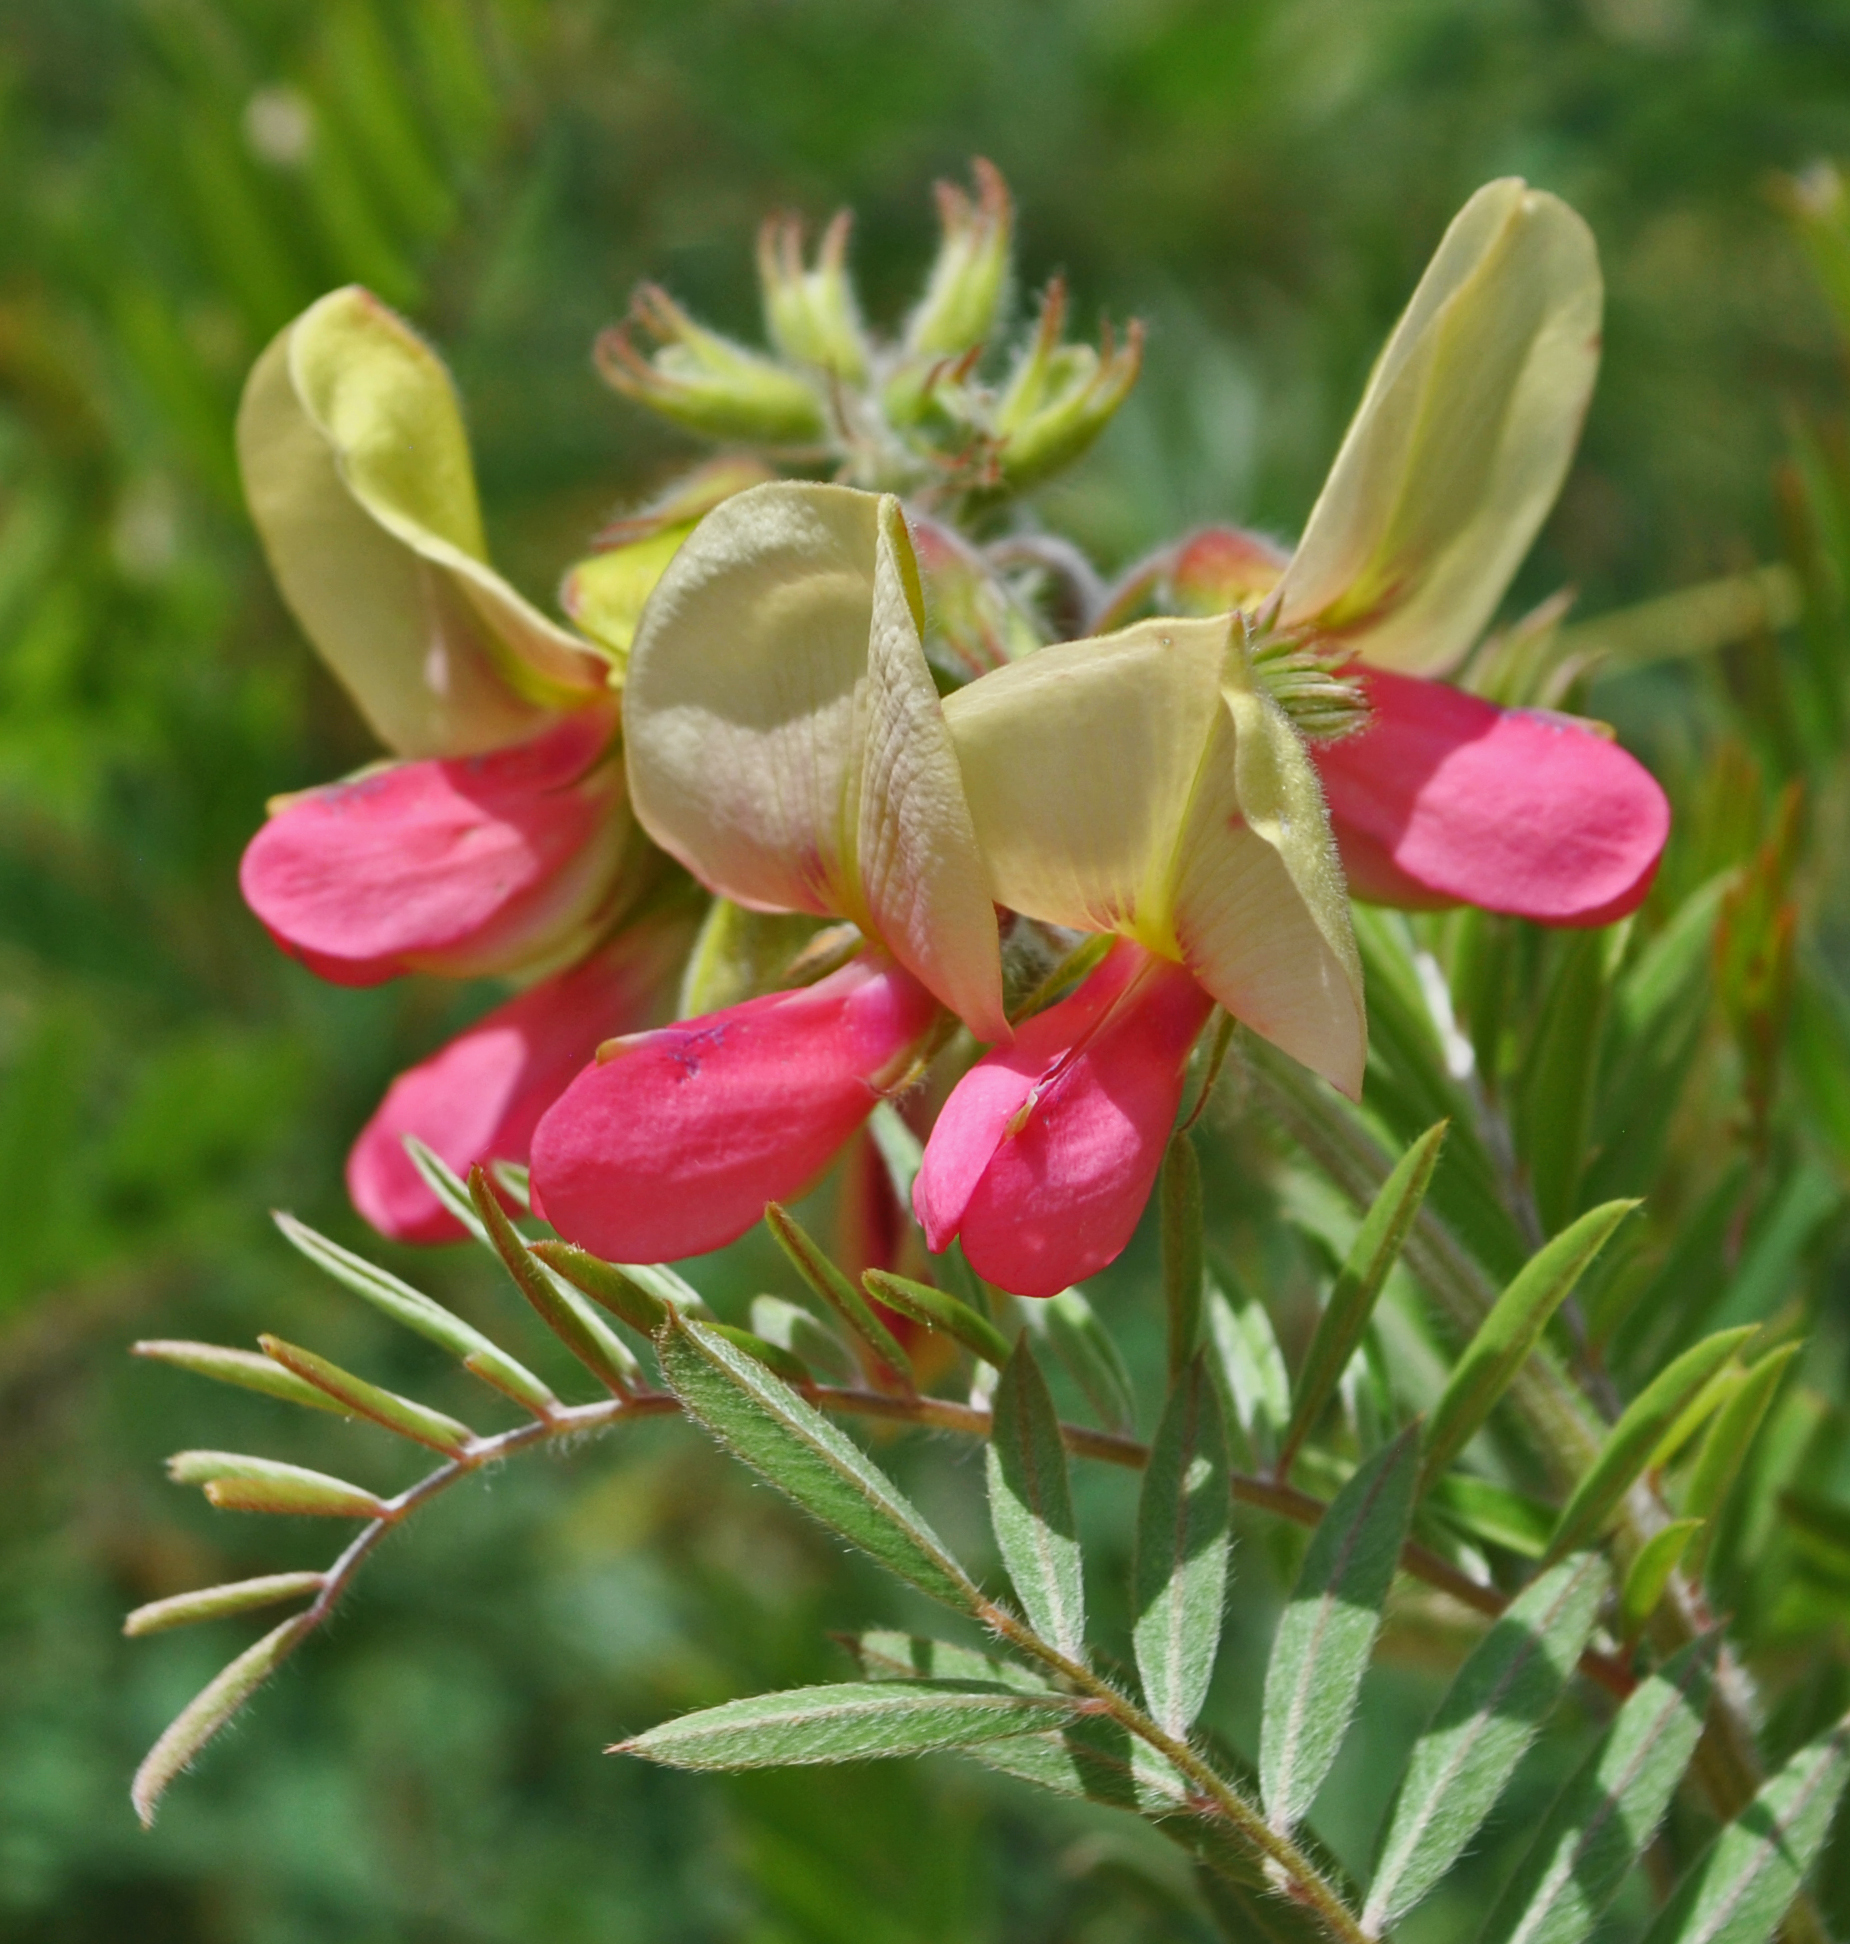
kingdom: Plantae
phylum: Tracheophyta
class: Magnoliopsida
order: Fabales
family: Fabaceae
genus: Tephrosia
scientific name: Tephrosia virginiana
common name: Rabbit-pea
